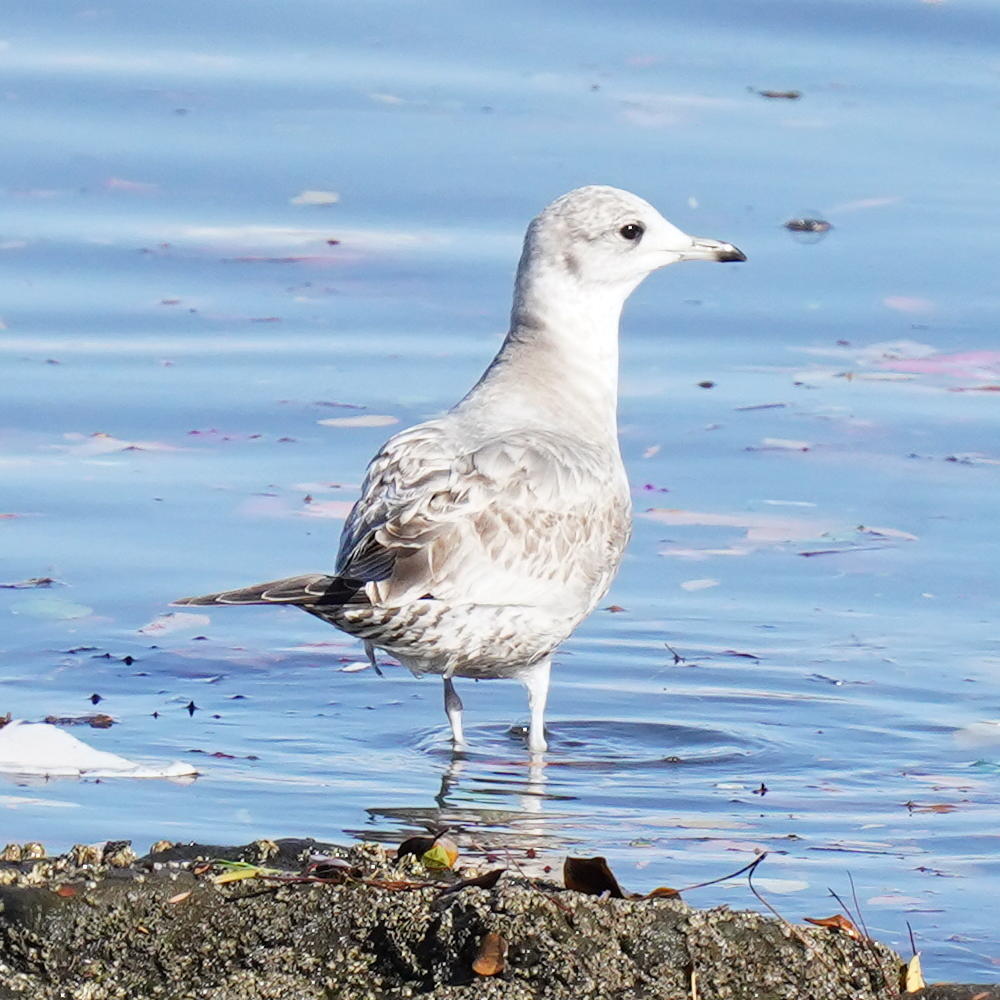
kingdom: Animalia
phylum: Chordata
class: Aves
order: Charadriiformes
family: Laridae
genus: Larus
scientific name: Larus brachyrhynchus
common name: Short-billed gull
